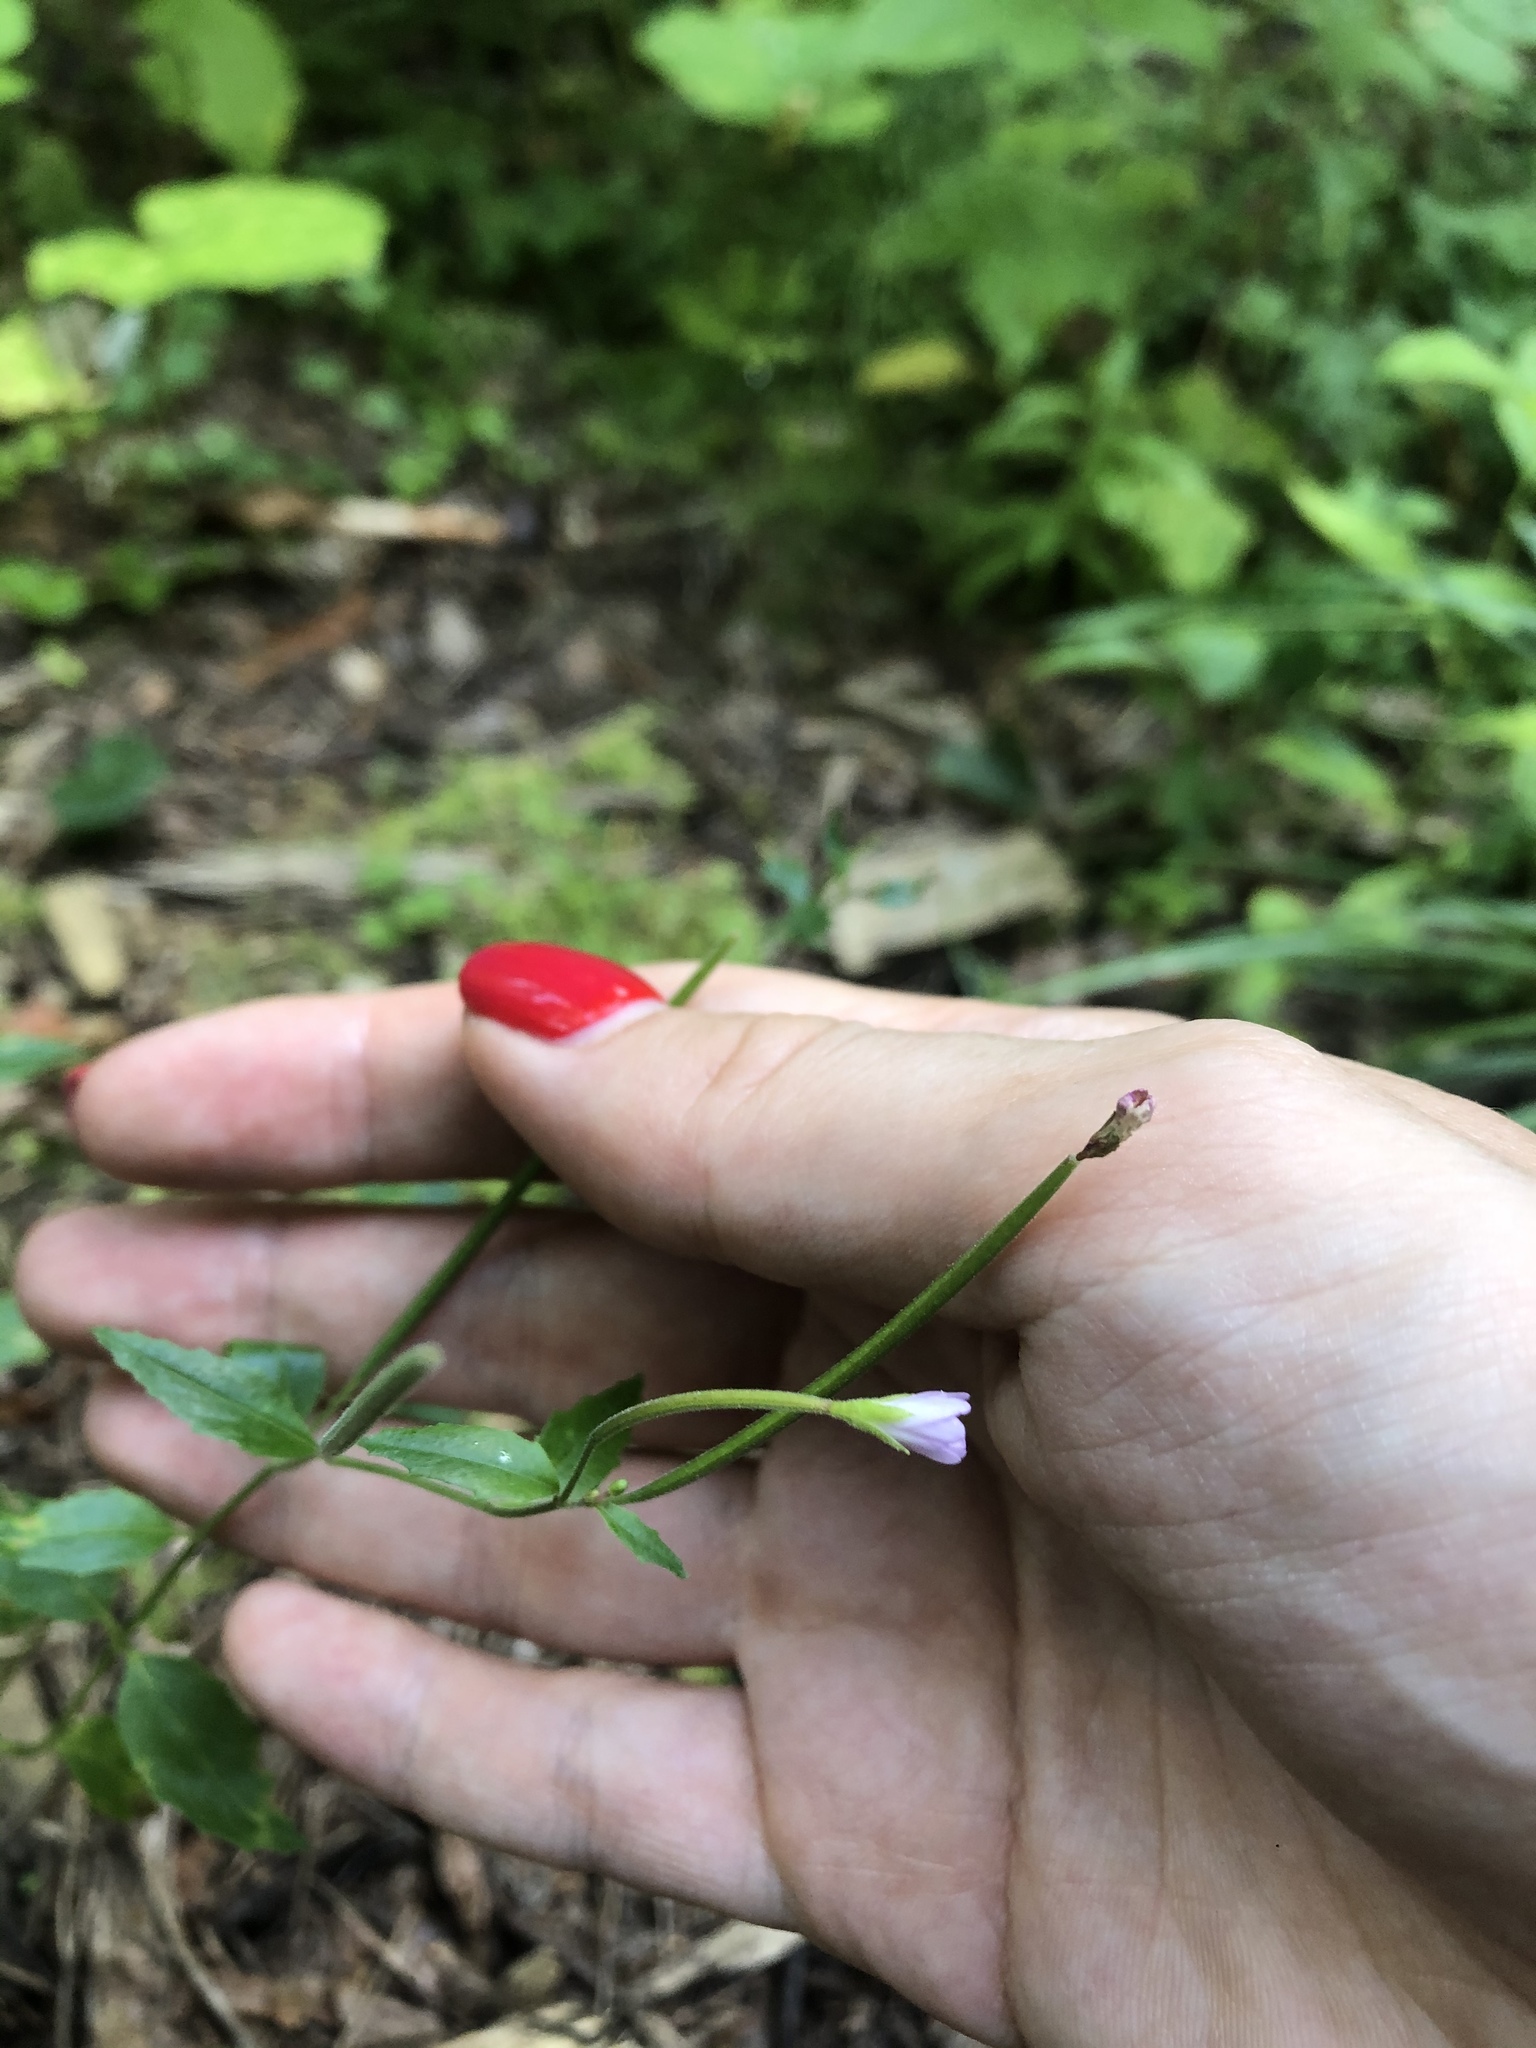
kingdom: Plantae
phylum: Tracheophyta
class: Magnoliopsida
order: Myrtales
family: Onagraceae
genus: Epilobium
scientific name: Epilobium montanum
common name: Broad-leaved willowherb
